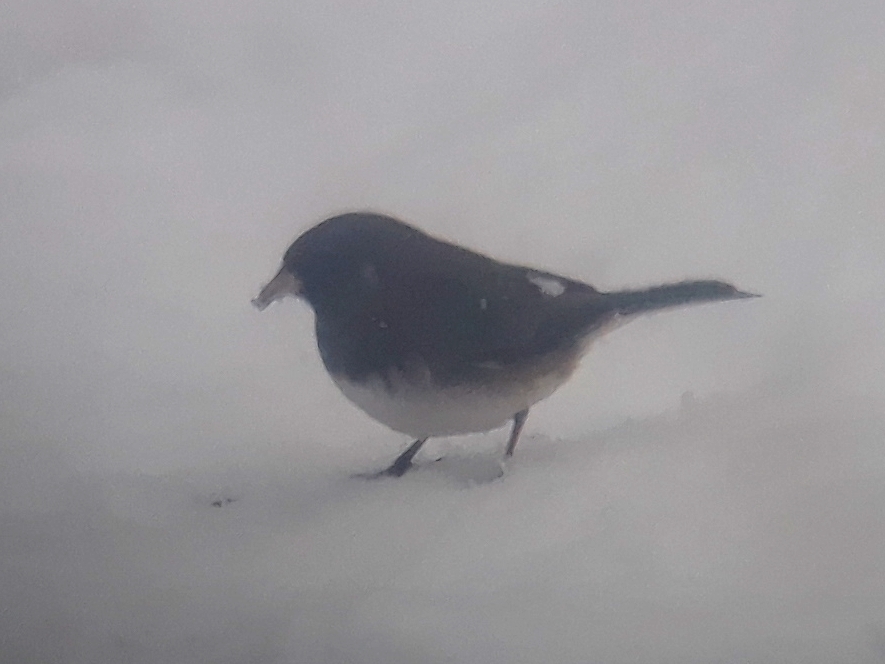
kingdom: Animalia
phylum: Chordata
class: Aves
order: Passeriformes
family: Passerellidae
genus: Junco
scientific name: Junco hyemalis
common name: Dark-eyed junco
